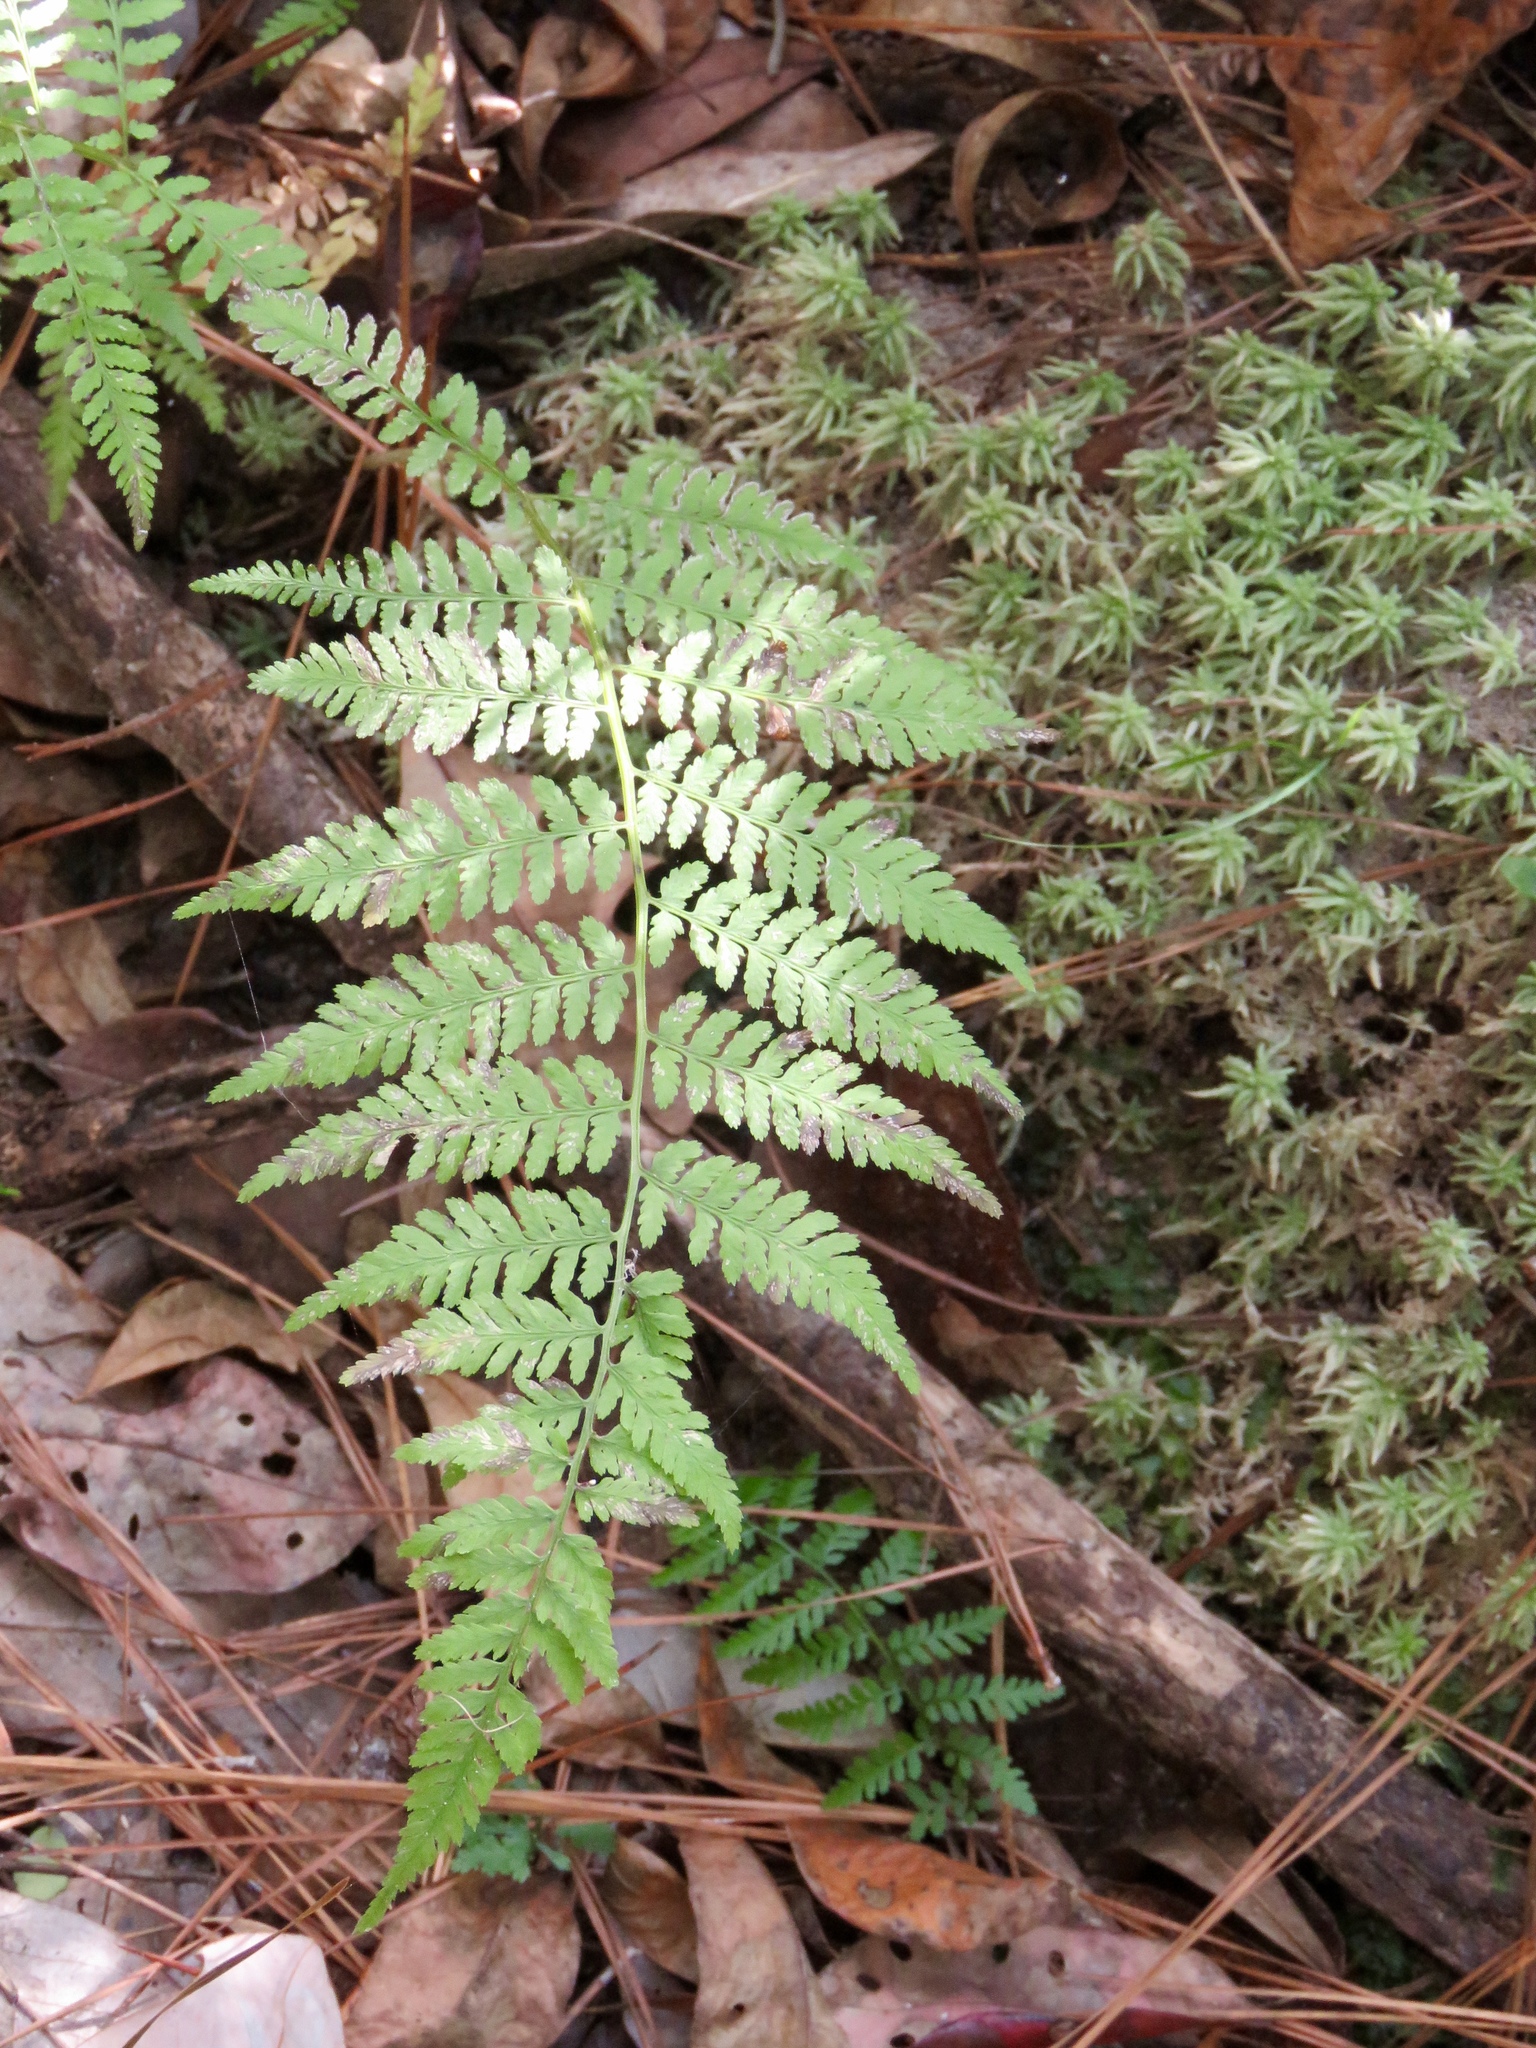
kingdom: Plantae
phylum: Tracheophyta
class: Polypodiopsida
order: Polypodiales
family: Athyriaceae
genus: Athyrium
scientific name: Athyrium asplenioides
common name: Southern lady fern
